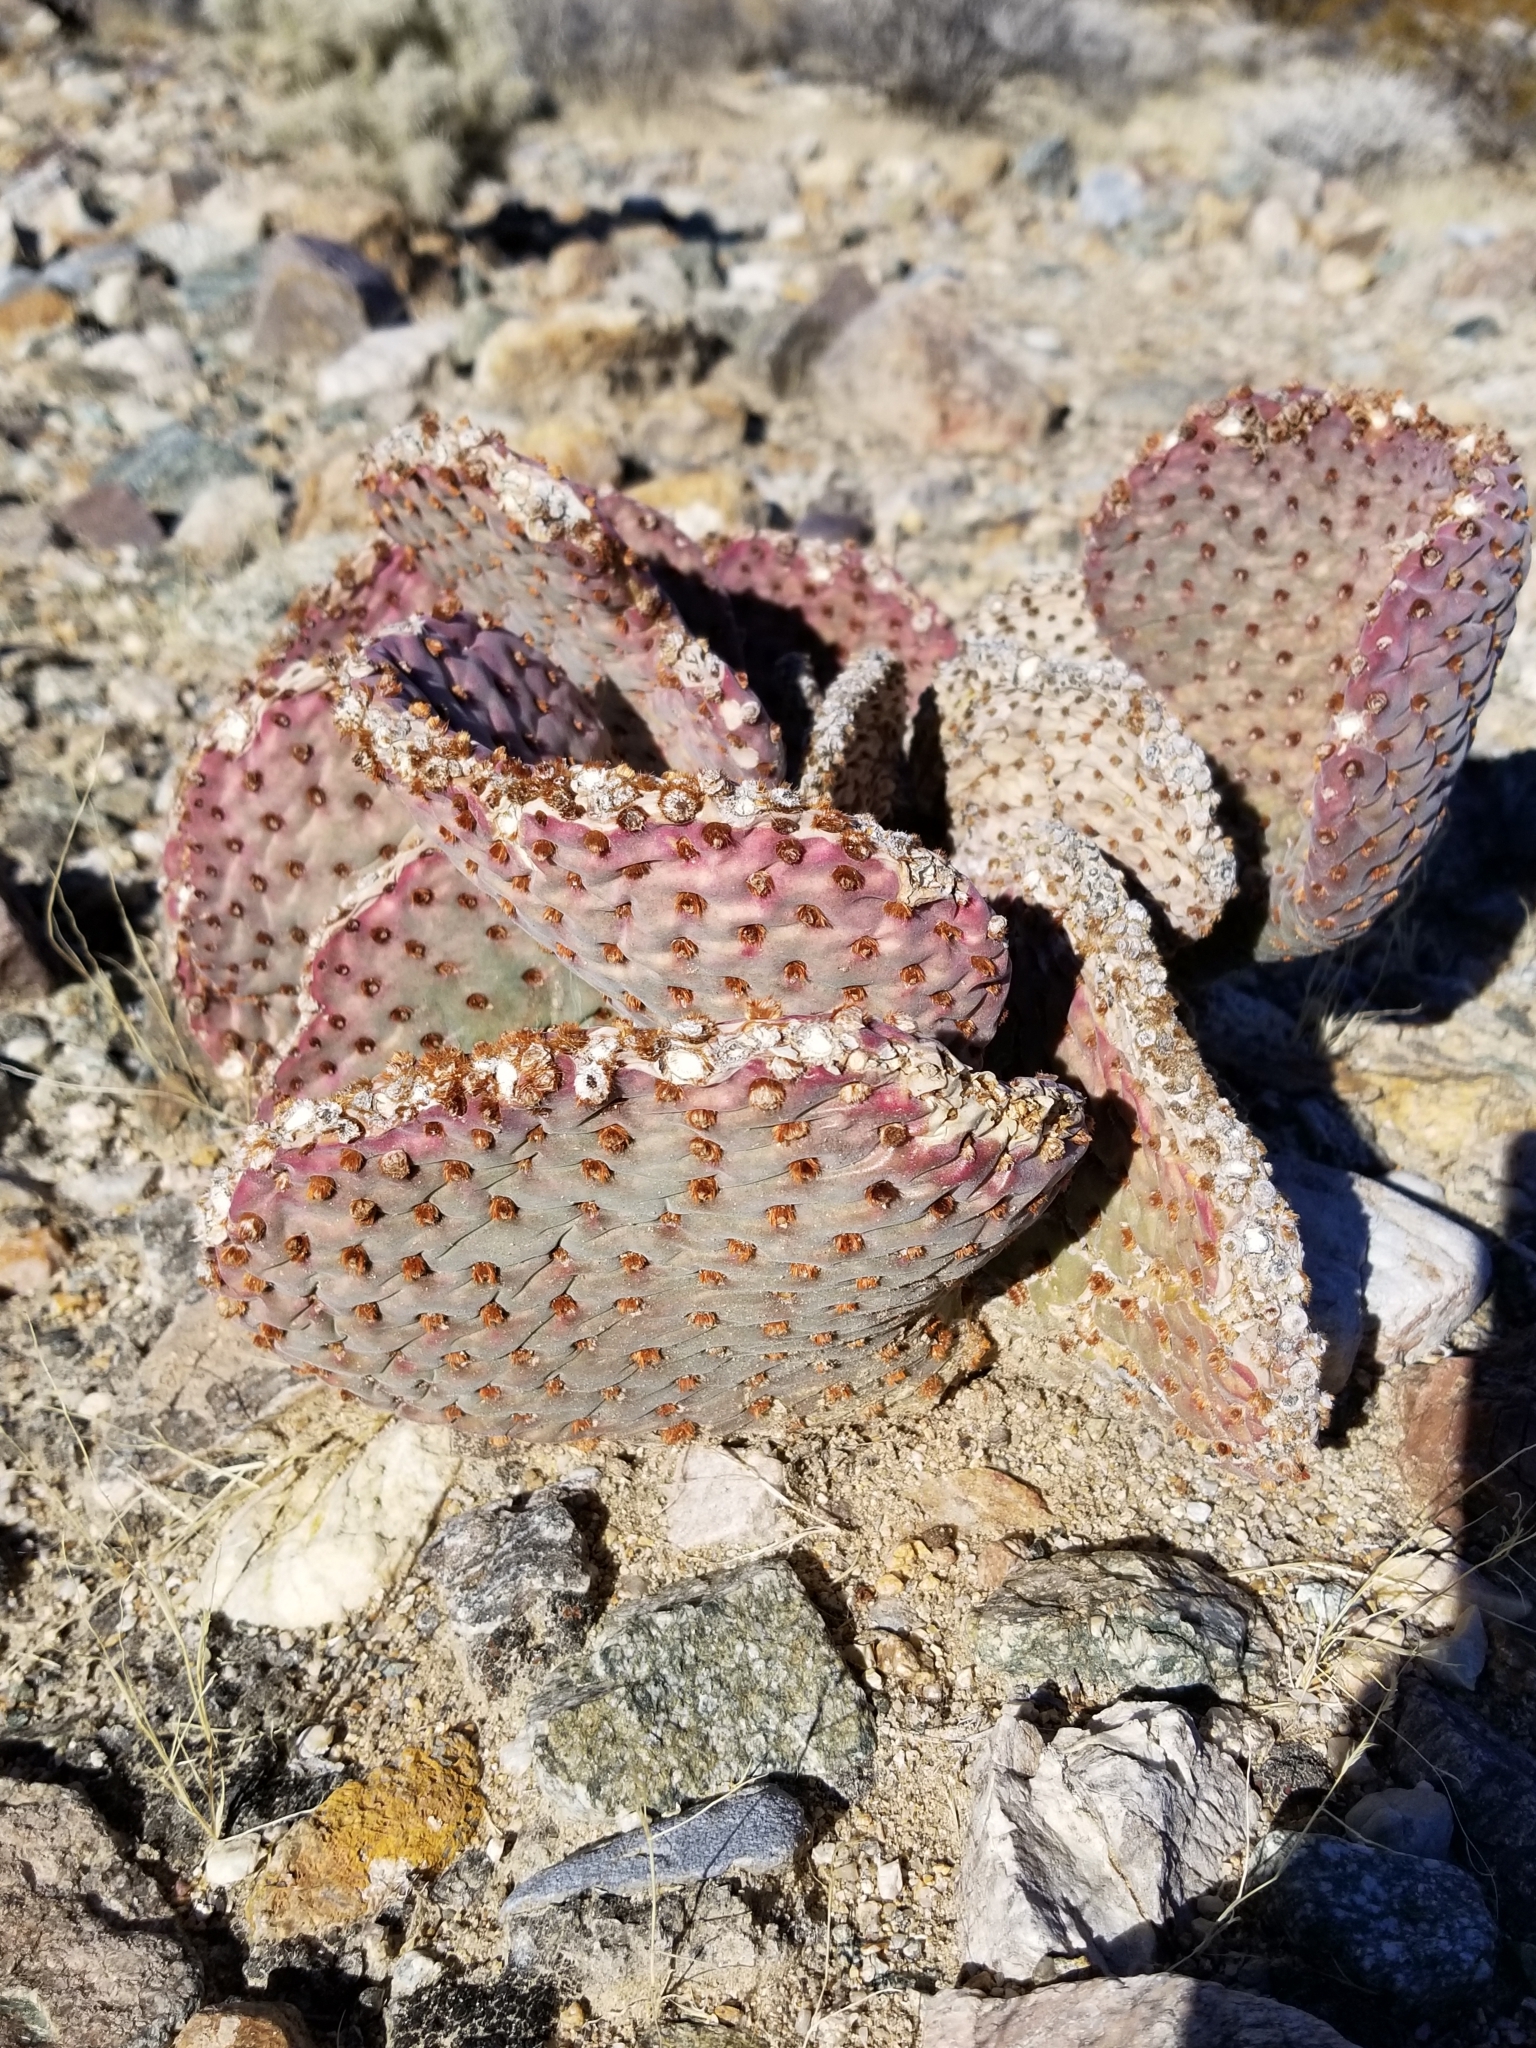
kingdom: Plantae
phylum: Tracheophyta
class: Magnoliopsida
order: Caryophyllales
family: Cactaceae
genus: Opuntia
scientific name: Opuntia basilaris
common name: Beavertail prickly-pear
